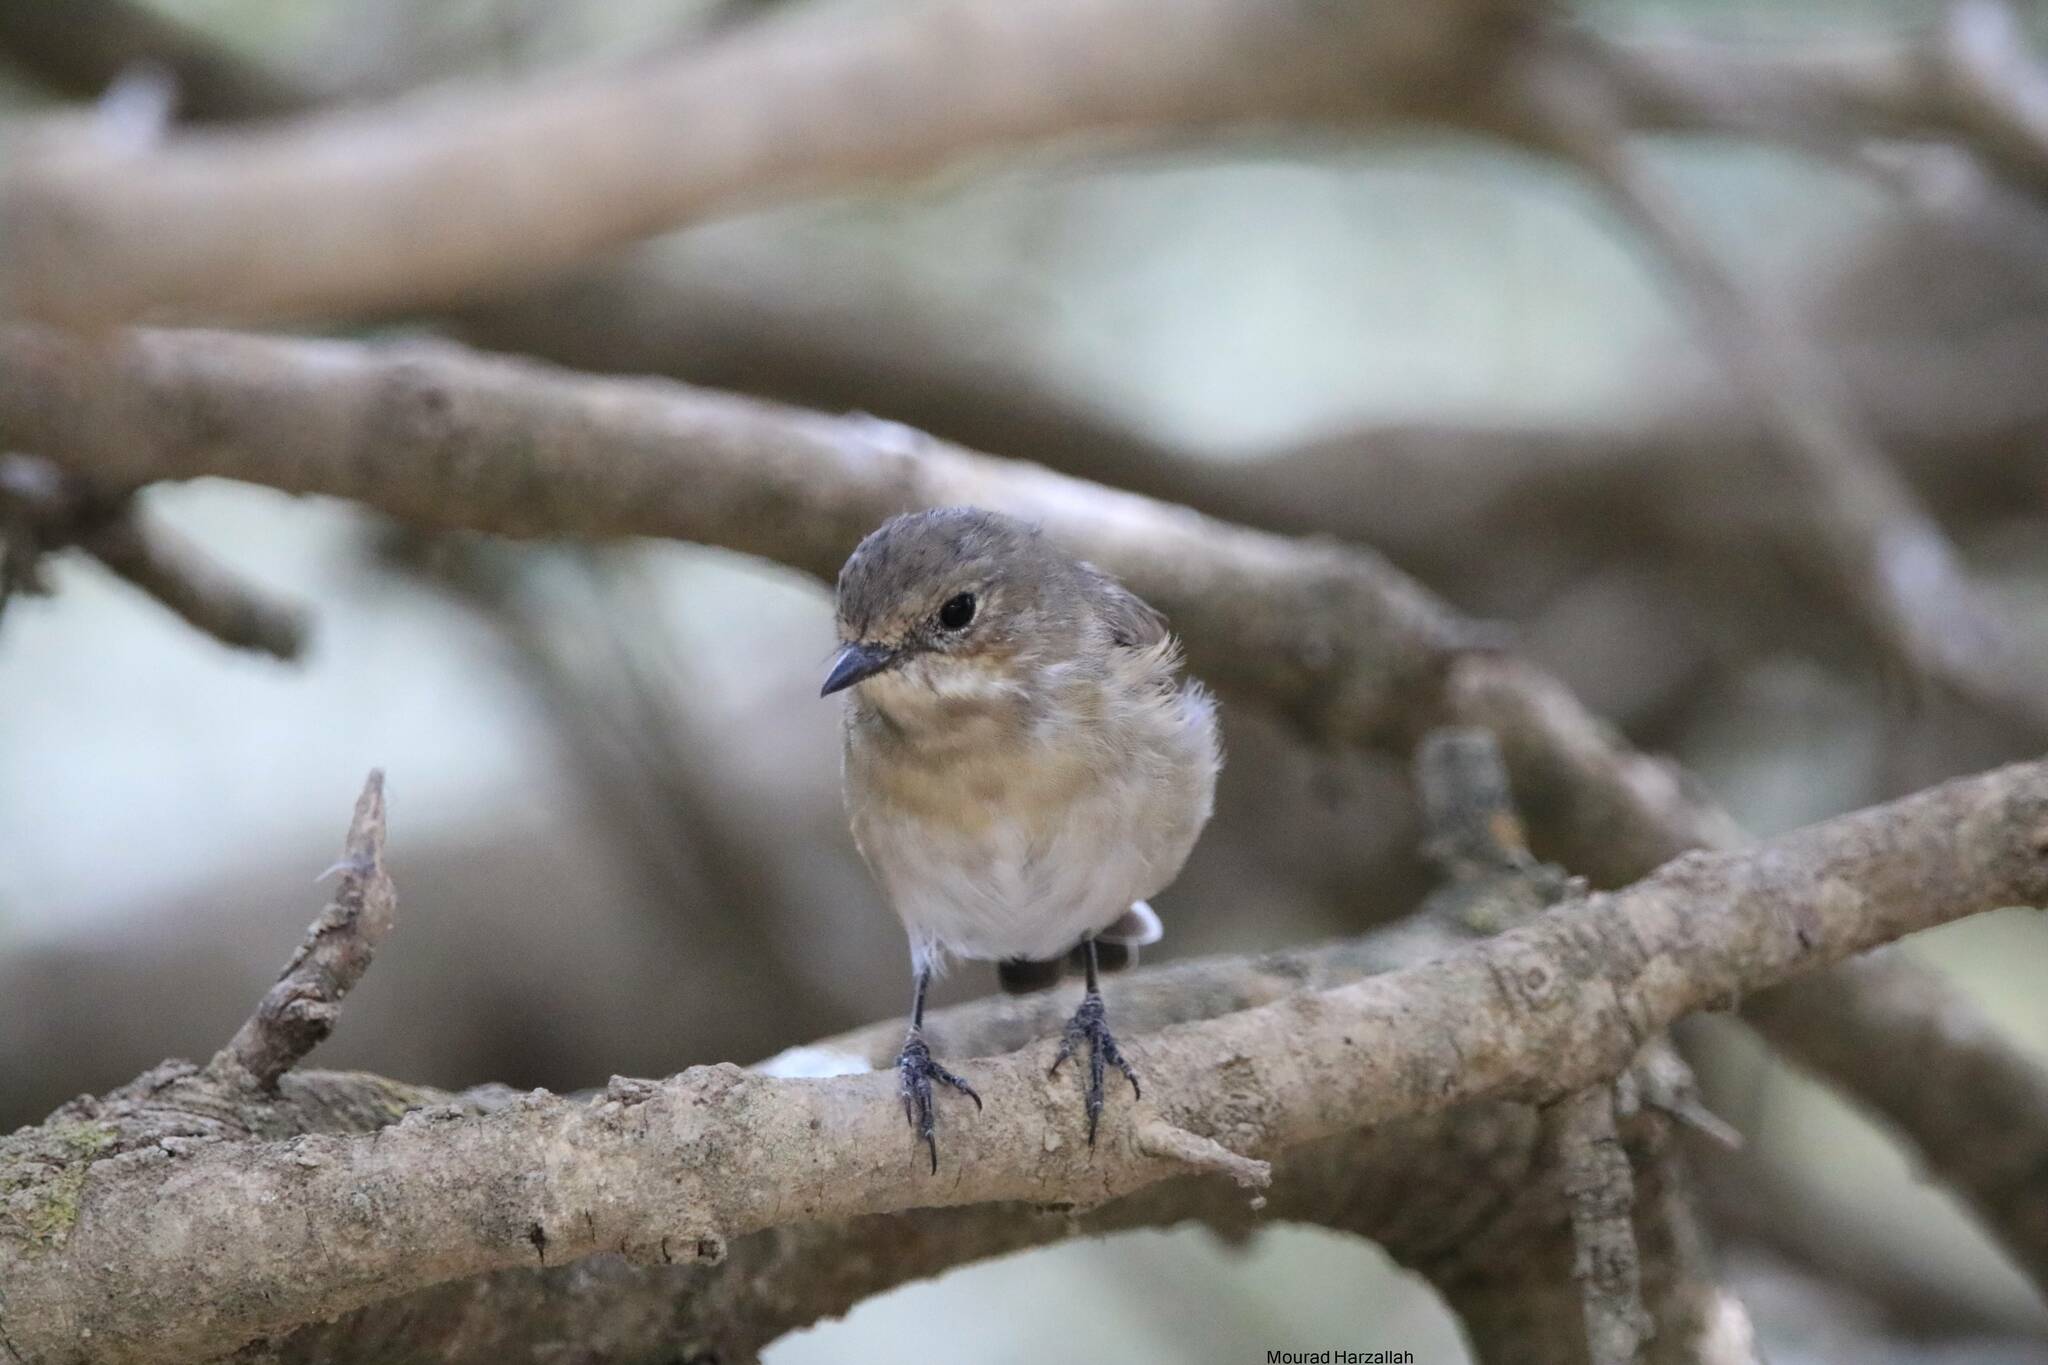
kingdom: Animalia
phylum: Chordata
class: Aves
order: Passeriformes
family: Muscicapidae
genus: Ficedula
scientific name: Ficedula speculigera
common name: Atlas pied flycatcher
